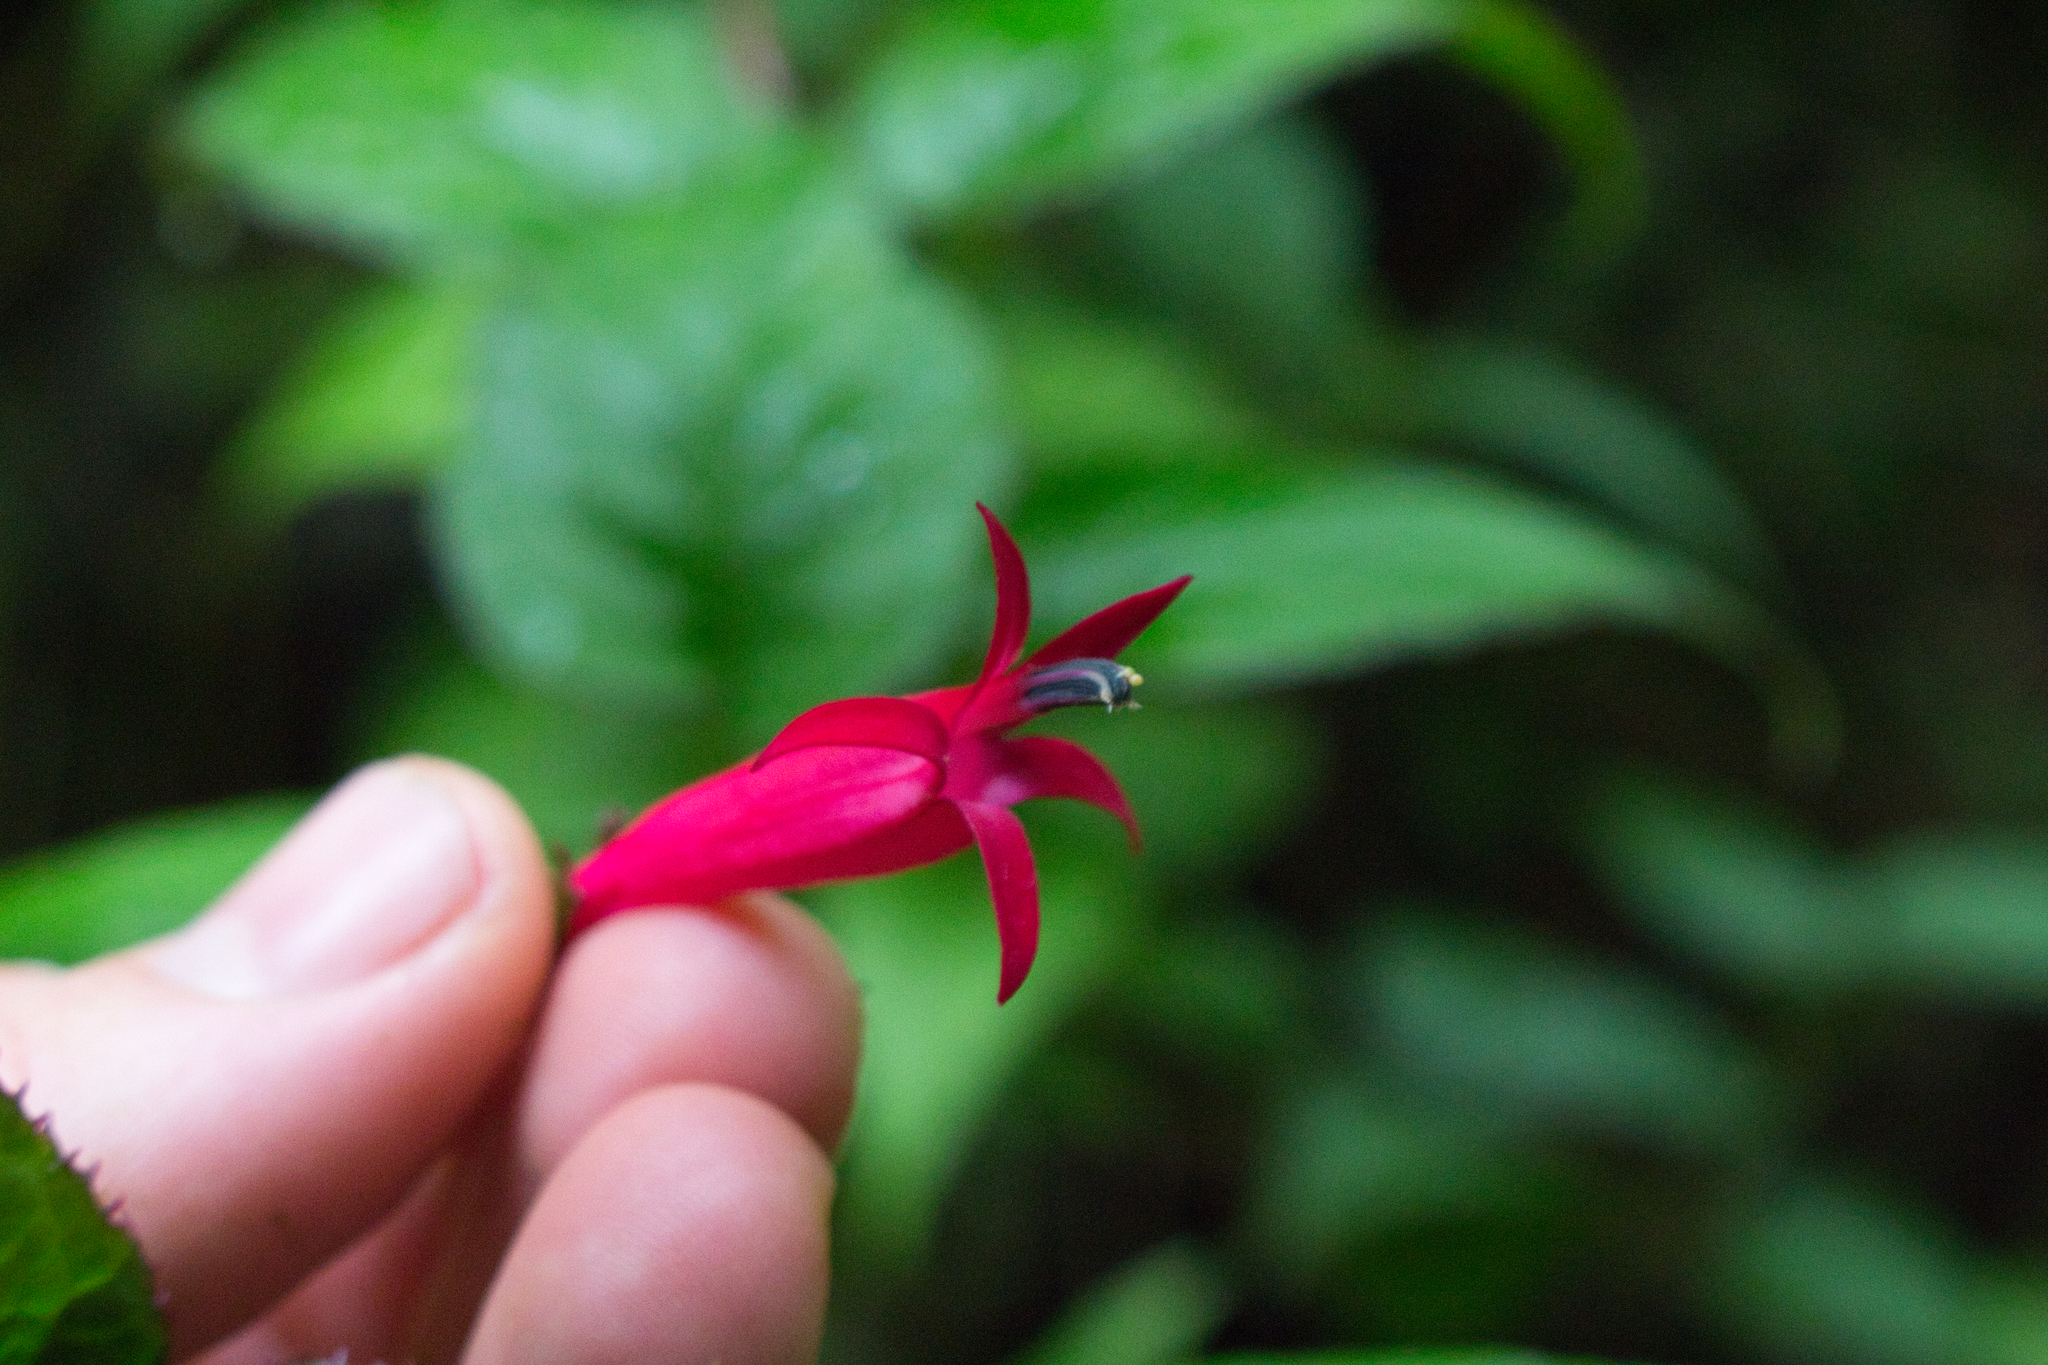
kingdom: Plantae
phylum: Tracheophyta
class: Magnoliopsida
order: Asterales
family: Campanulaceae
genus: Centropogon
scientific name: Centropogon costaricae
